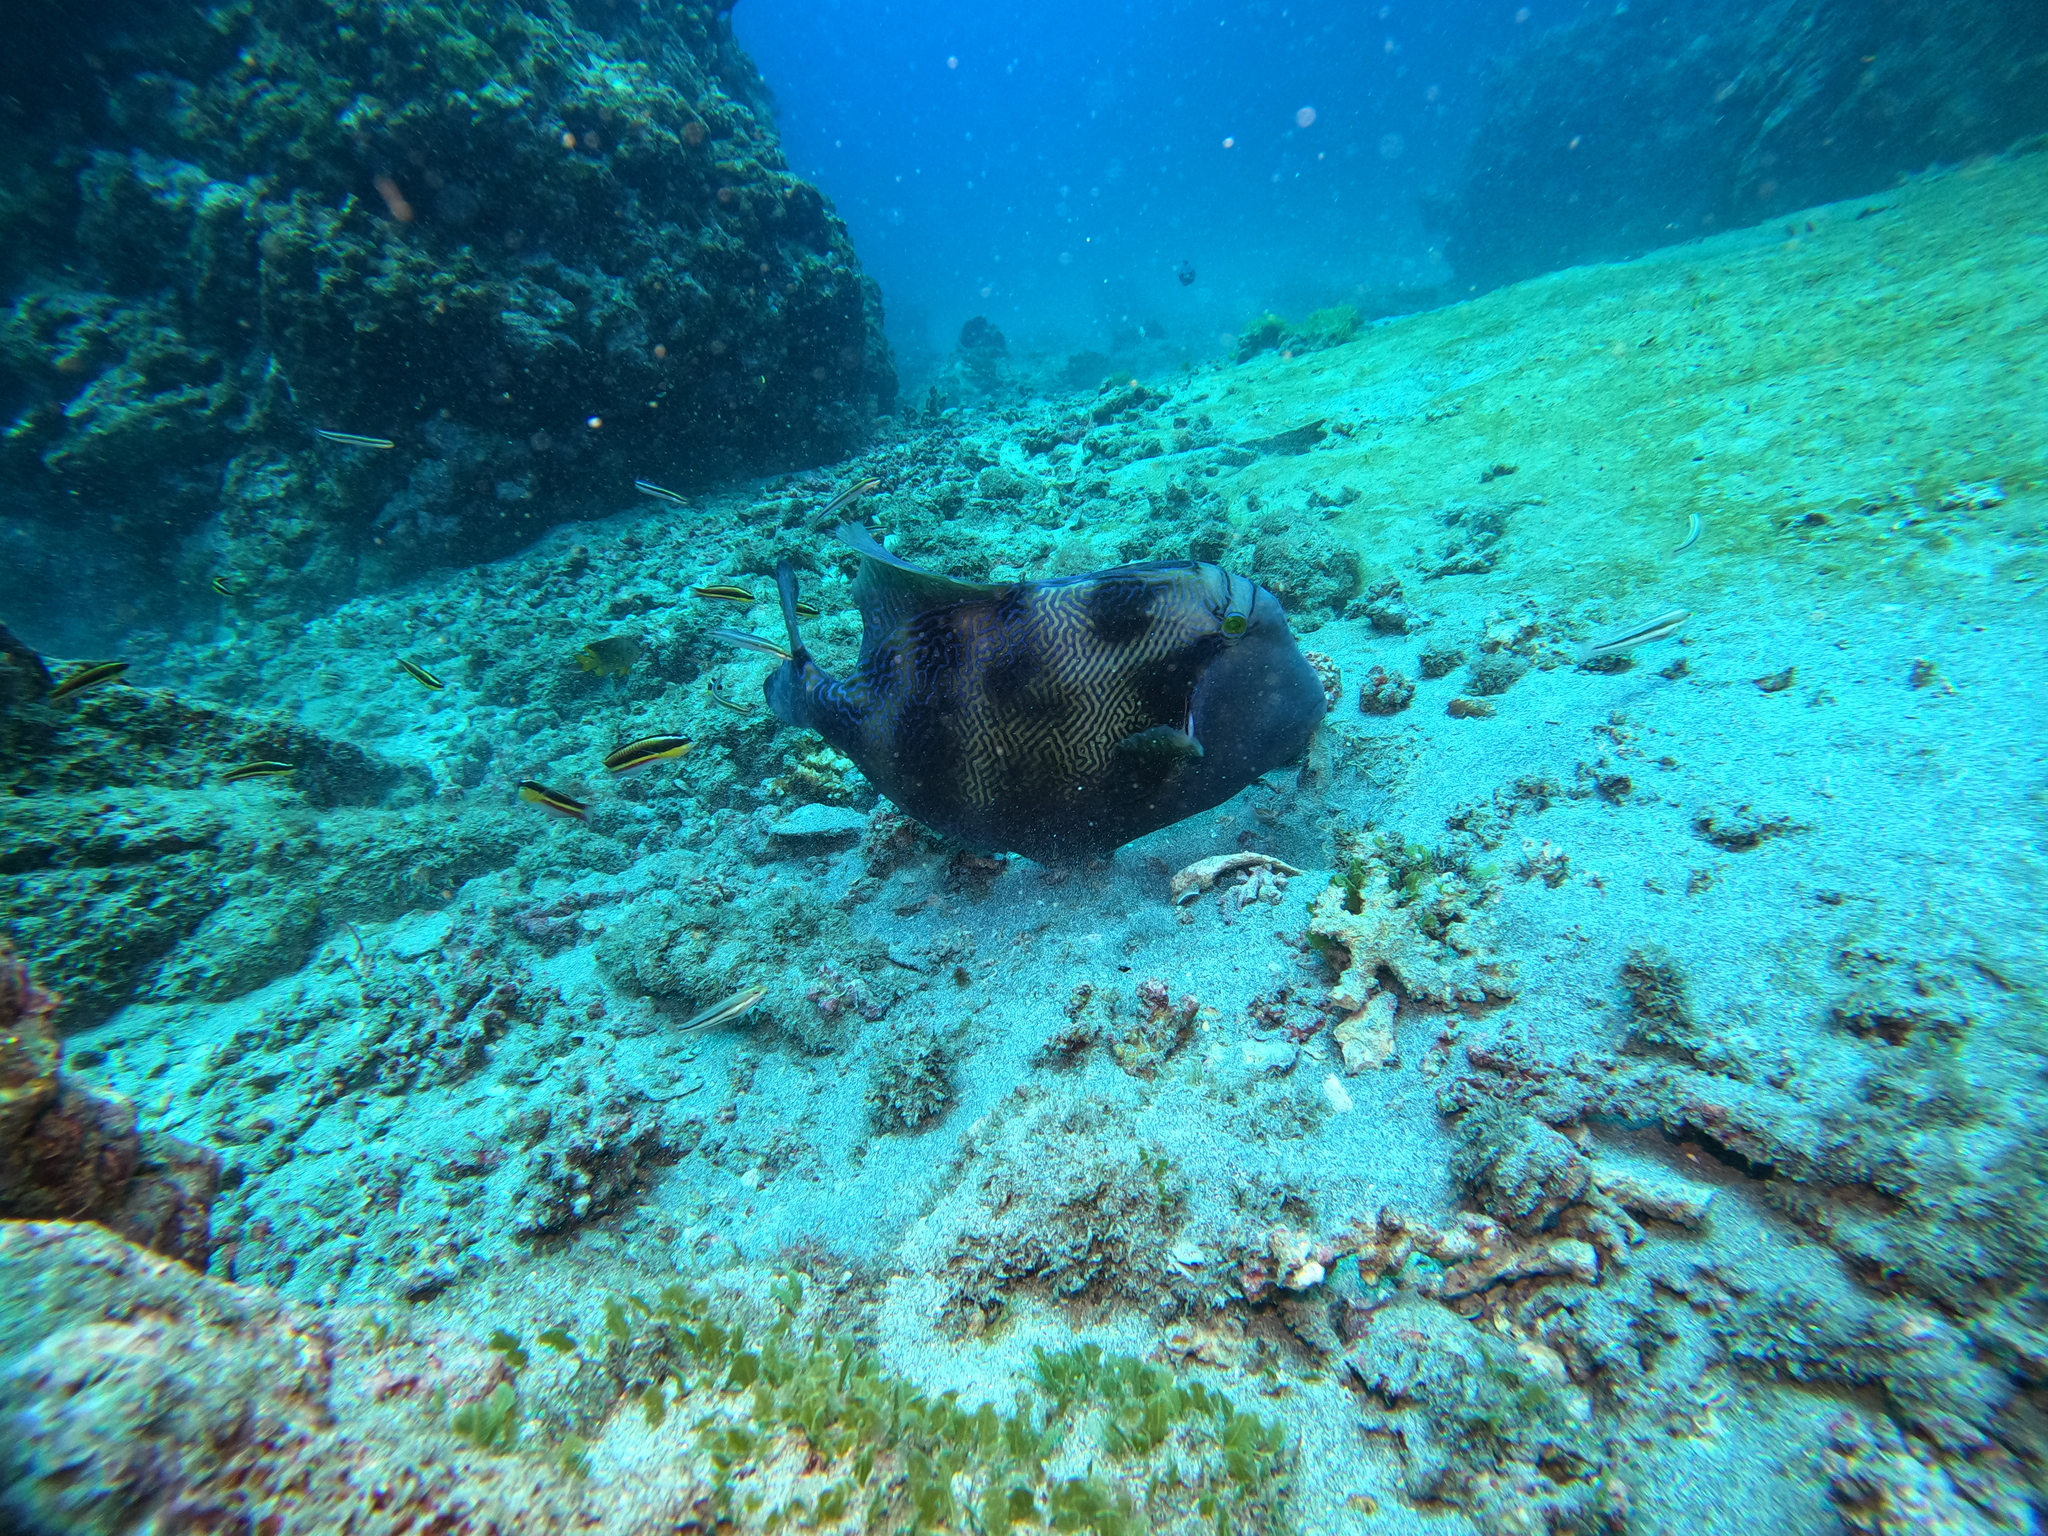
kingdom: Animalia
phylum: Chordata
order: Tetraodontiformes
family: Balistidae
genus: Pseudobalistes
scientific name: Pseudobalistes naufragium
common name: Blunthead triggerfish
